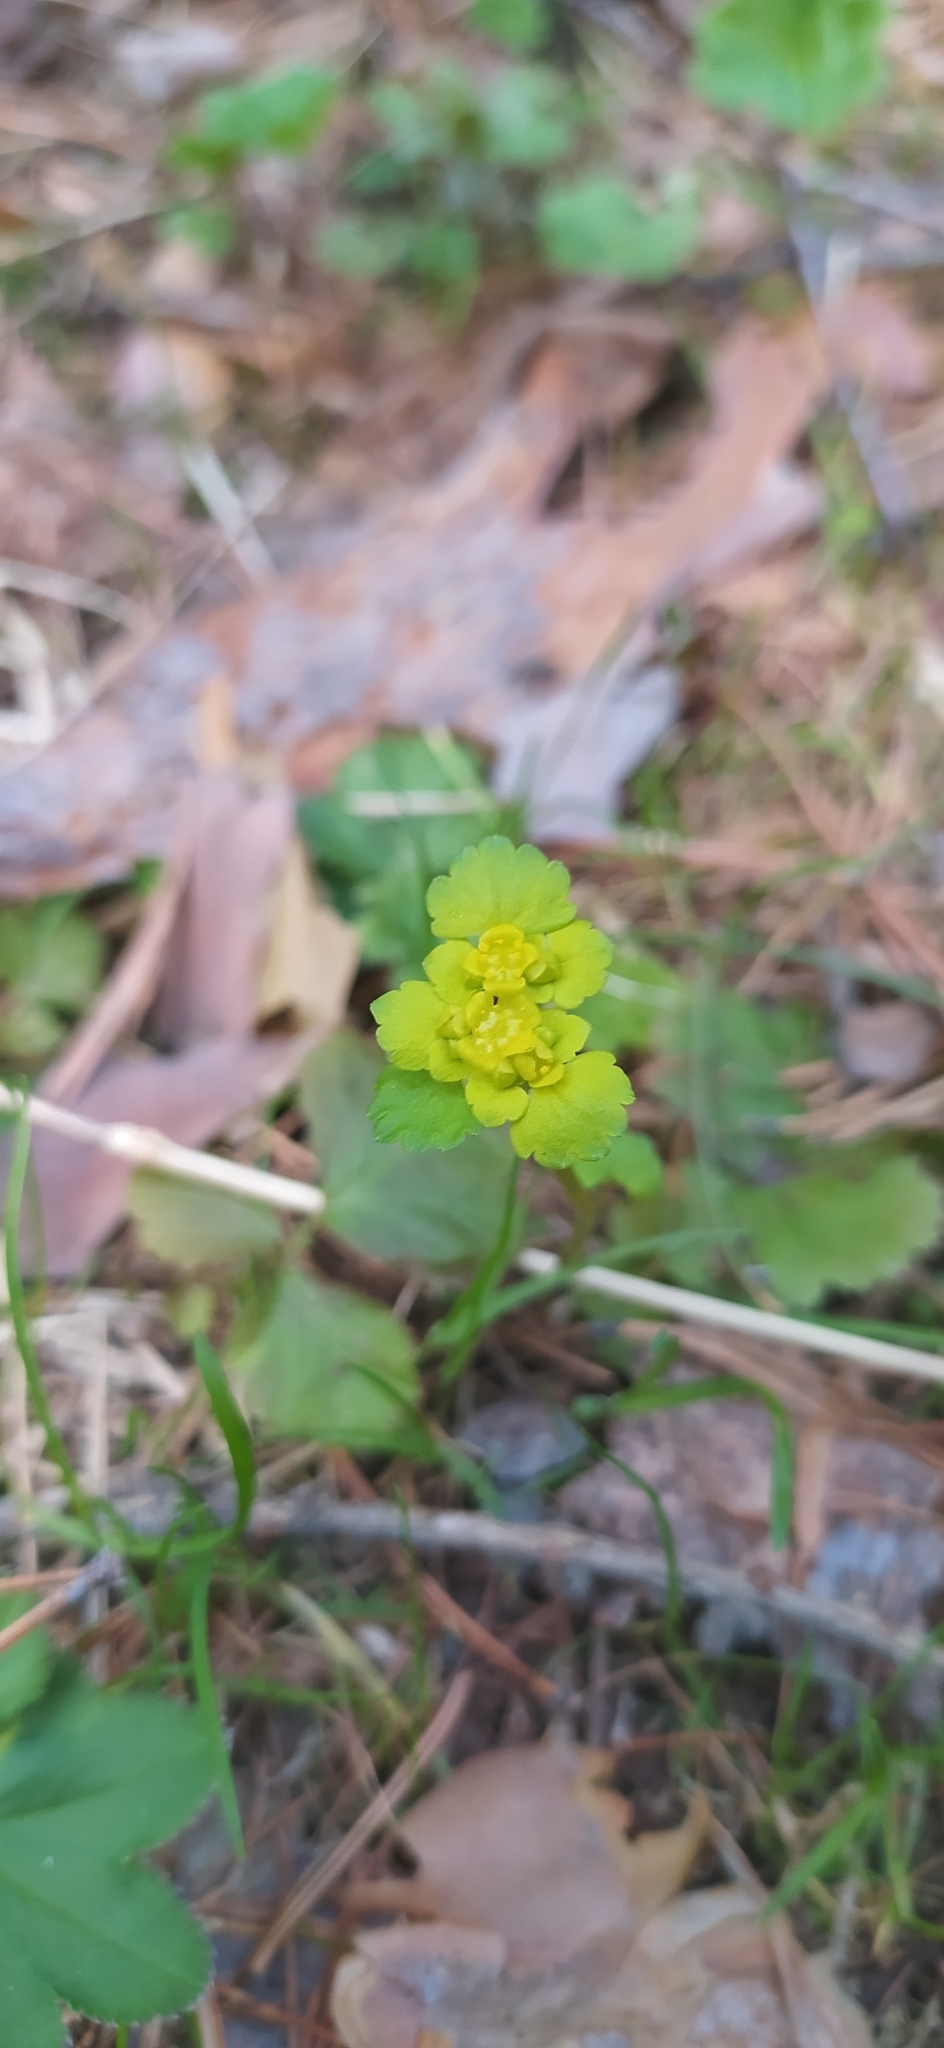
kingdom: Plantae
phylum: Tracheophyta
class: Magnoliopsida
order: Saxifragales
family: Saxifragaceae
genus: Chrysosplenium
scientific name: Chrysosplenium alternifolium
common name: Alternate-leaved golden-saxifrage
